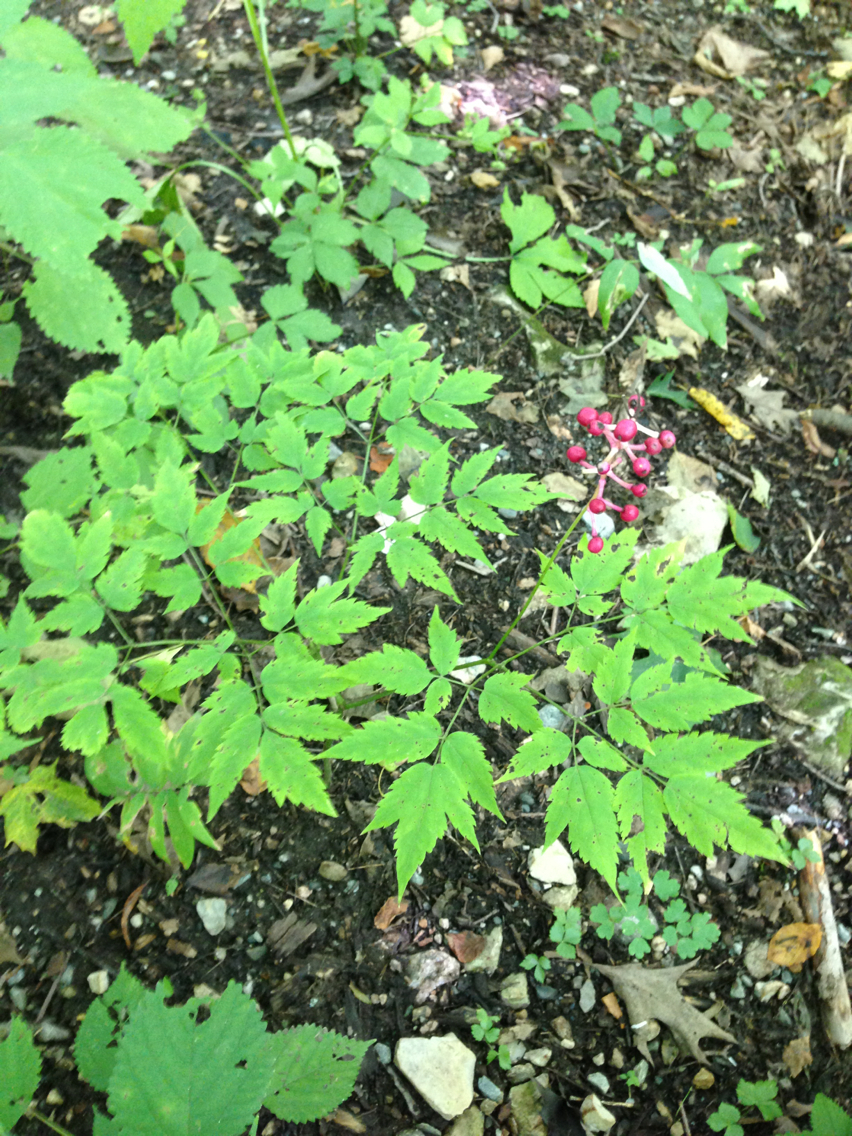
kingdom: Plantae
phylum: Tracheophyta
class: Magnoliopsida
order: Ranunculales
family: Ranunculaceae
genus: Actaea
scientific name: Actaea pachypoda
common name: Doll's-eyes
